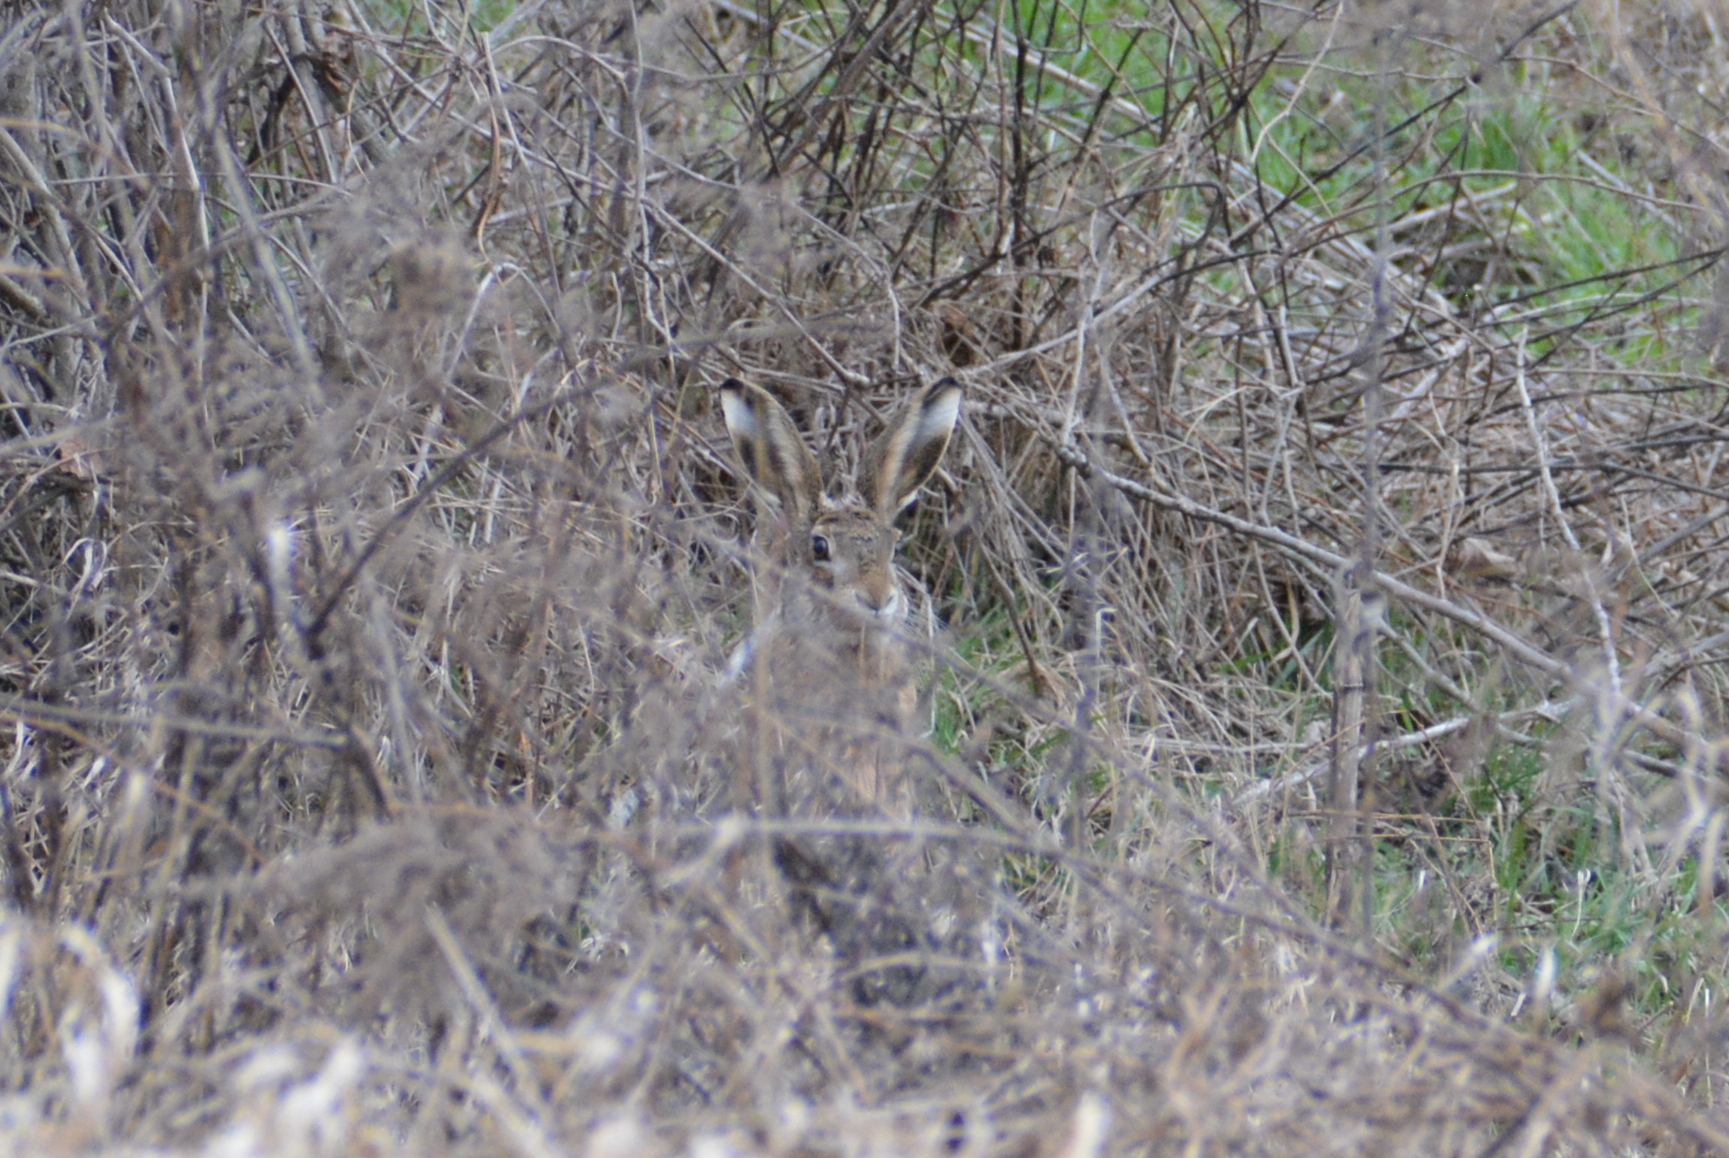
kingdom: Animalia
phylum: Chordata
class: Mammalia
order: Lagomorpha
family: Leporidae
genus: Lepus
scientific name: Lepus europaeus
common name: European hare
